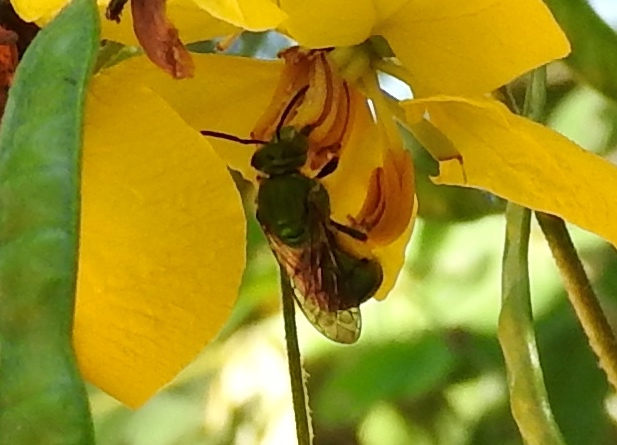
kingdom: Animalia
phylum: Arthropoda
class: Insecta
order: Hymenoptera
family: Halictidae
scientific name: Halictidae
